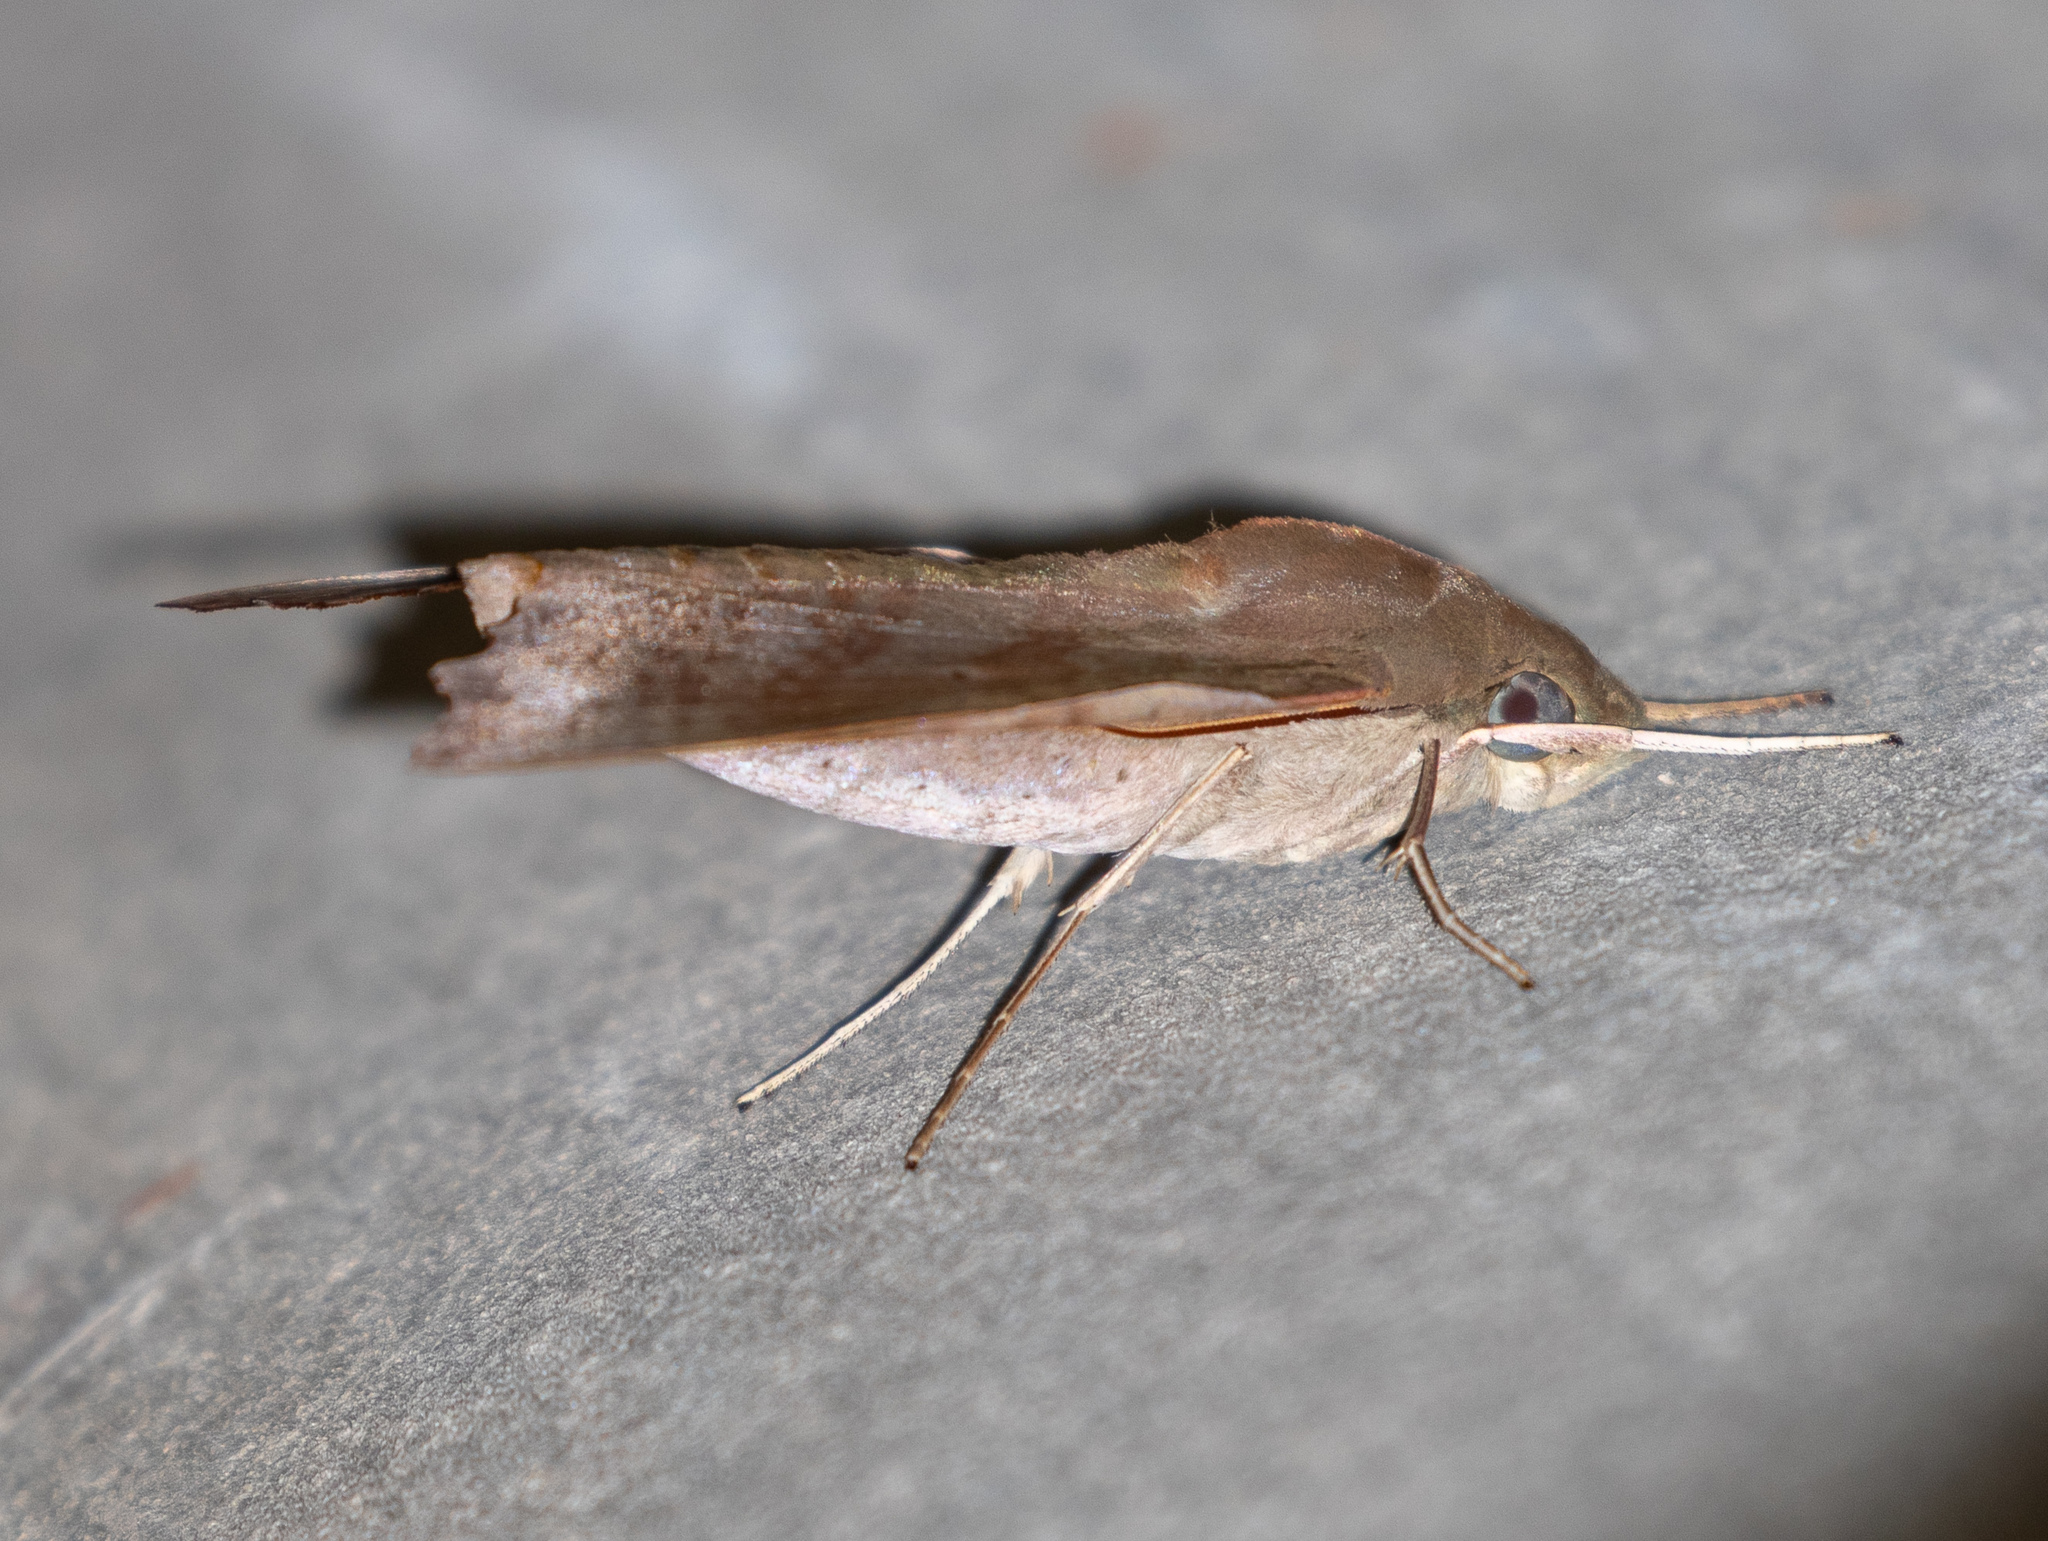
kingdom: Animalia
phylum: Arthropoda
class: Insecta
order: Lepidoptera
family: Sphingidae
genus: Aleuron
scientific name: Aleuron chloroptera
